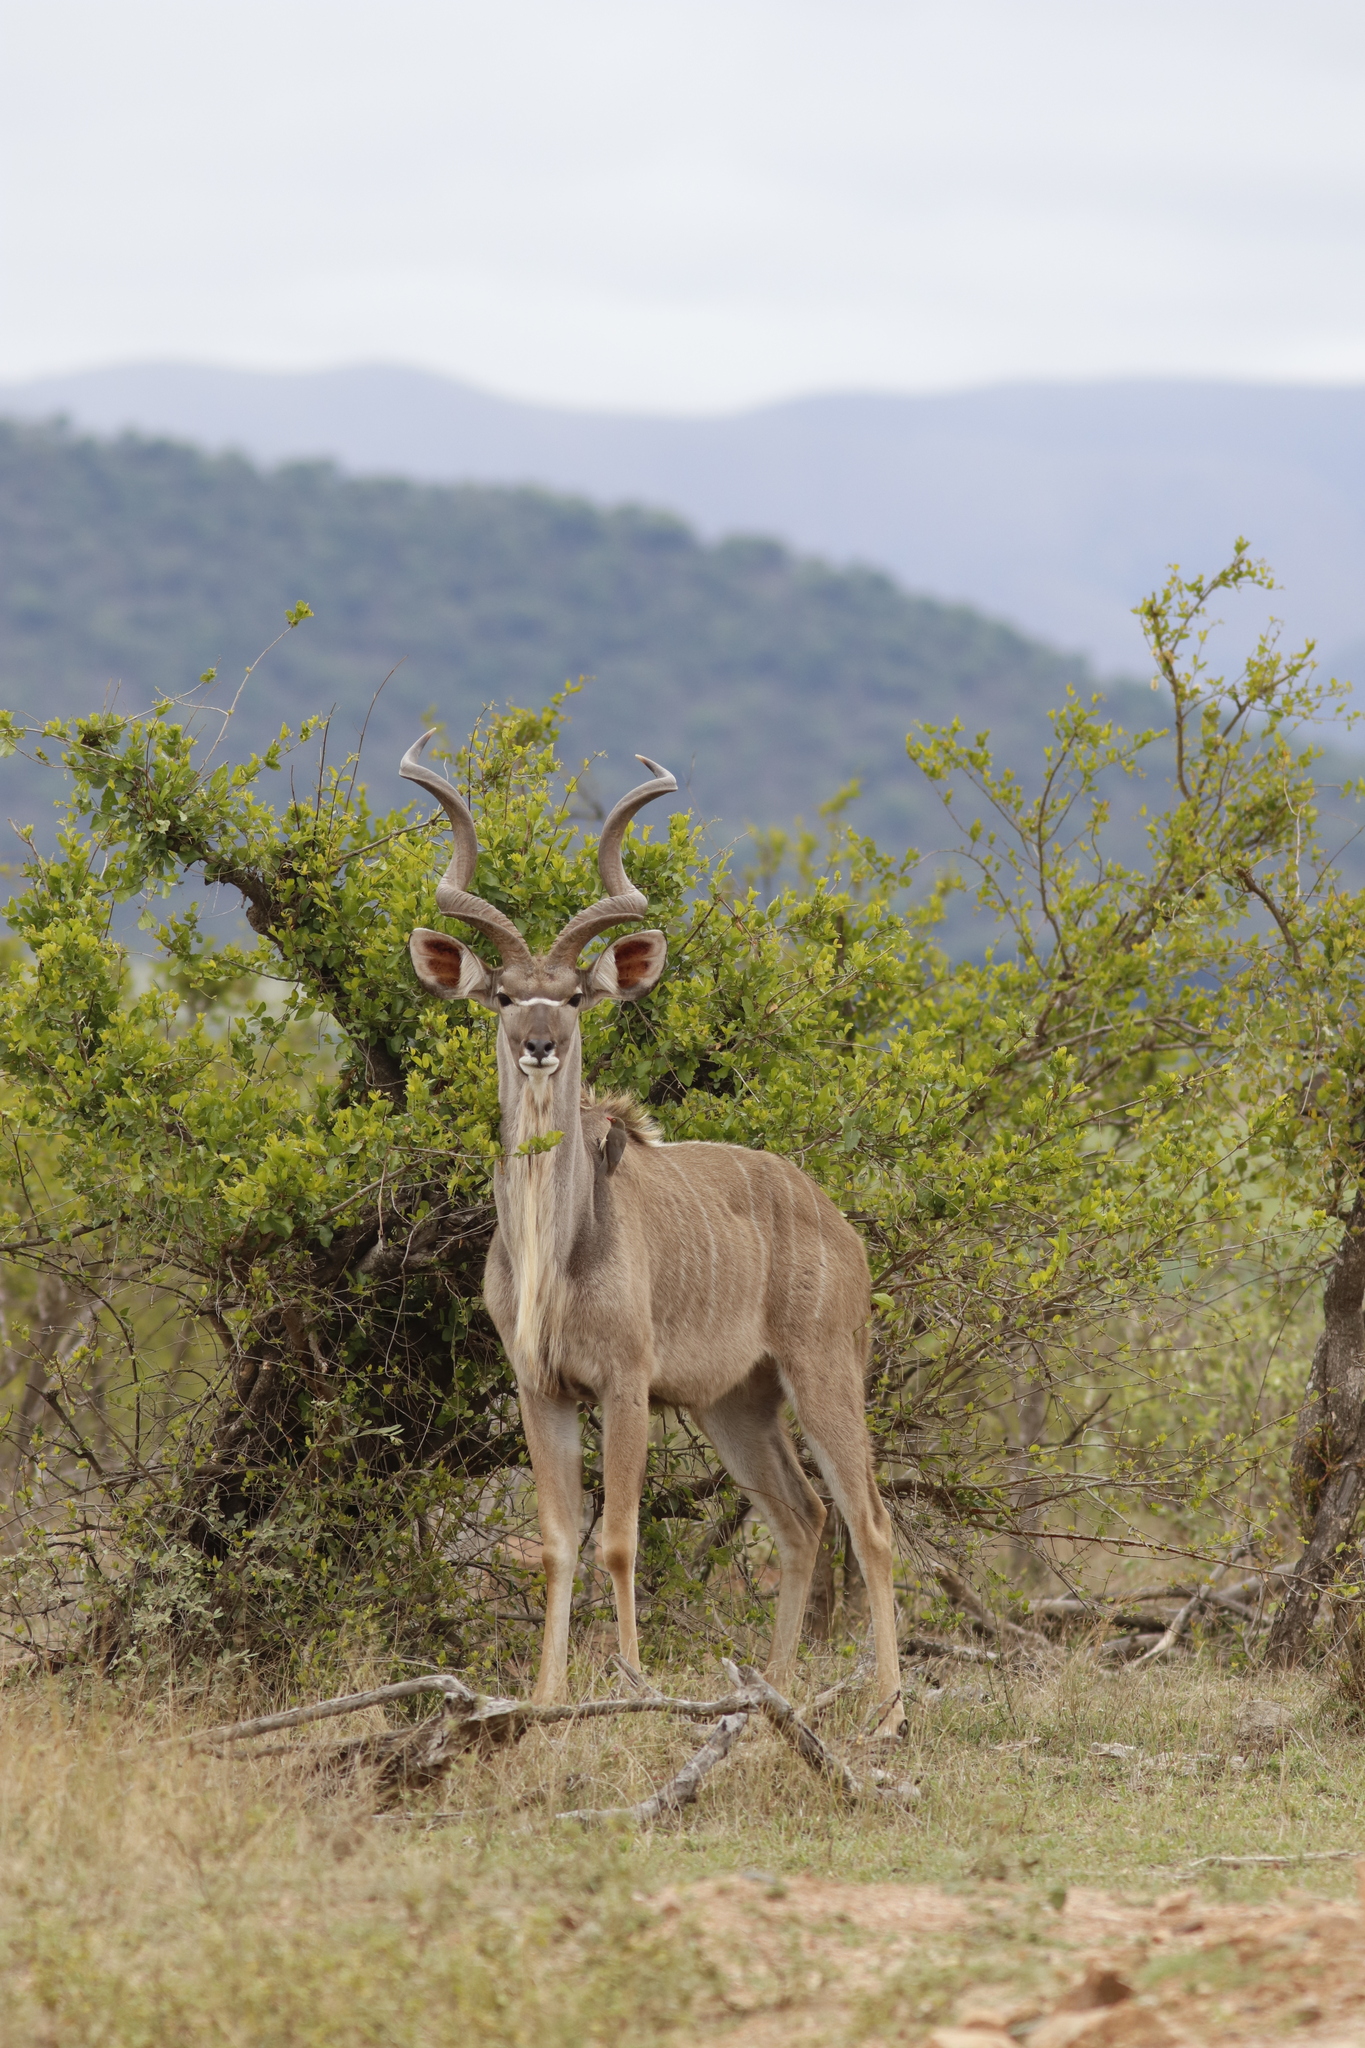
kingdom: Animalia
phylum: Chordata
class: Mammalia
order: Artiodactyla
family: Bovidae
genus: Tragelaphus
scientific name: Tragelaphus strepsiceros
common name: Greater kudu
